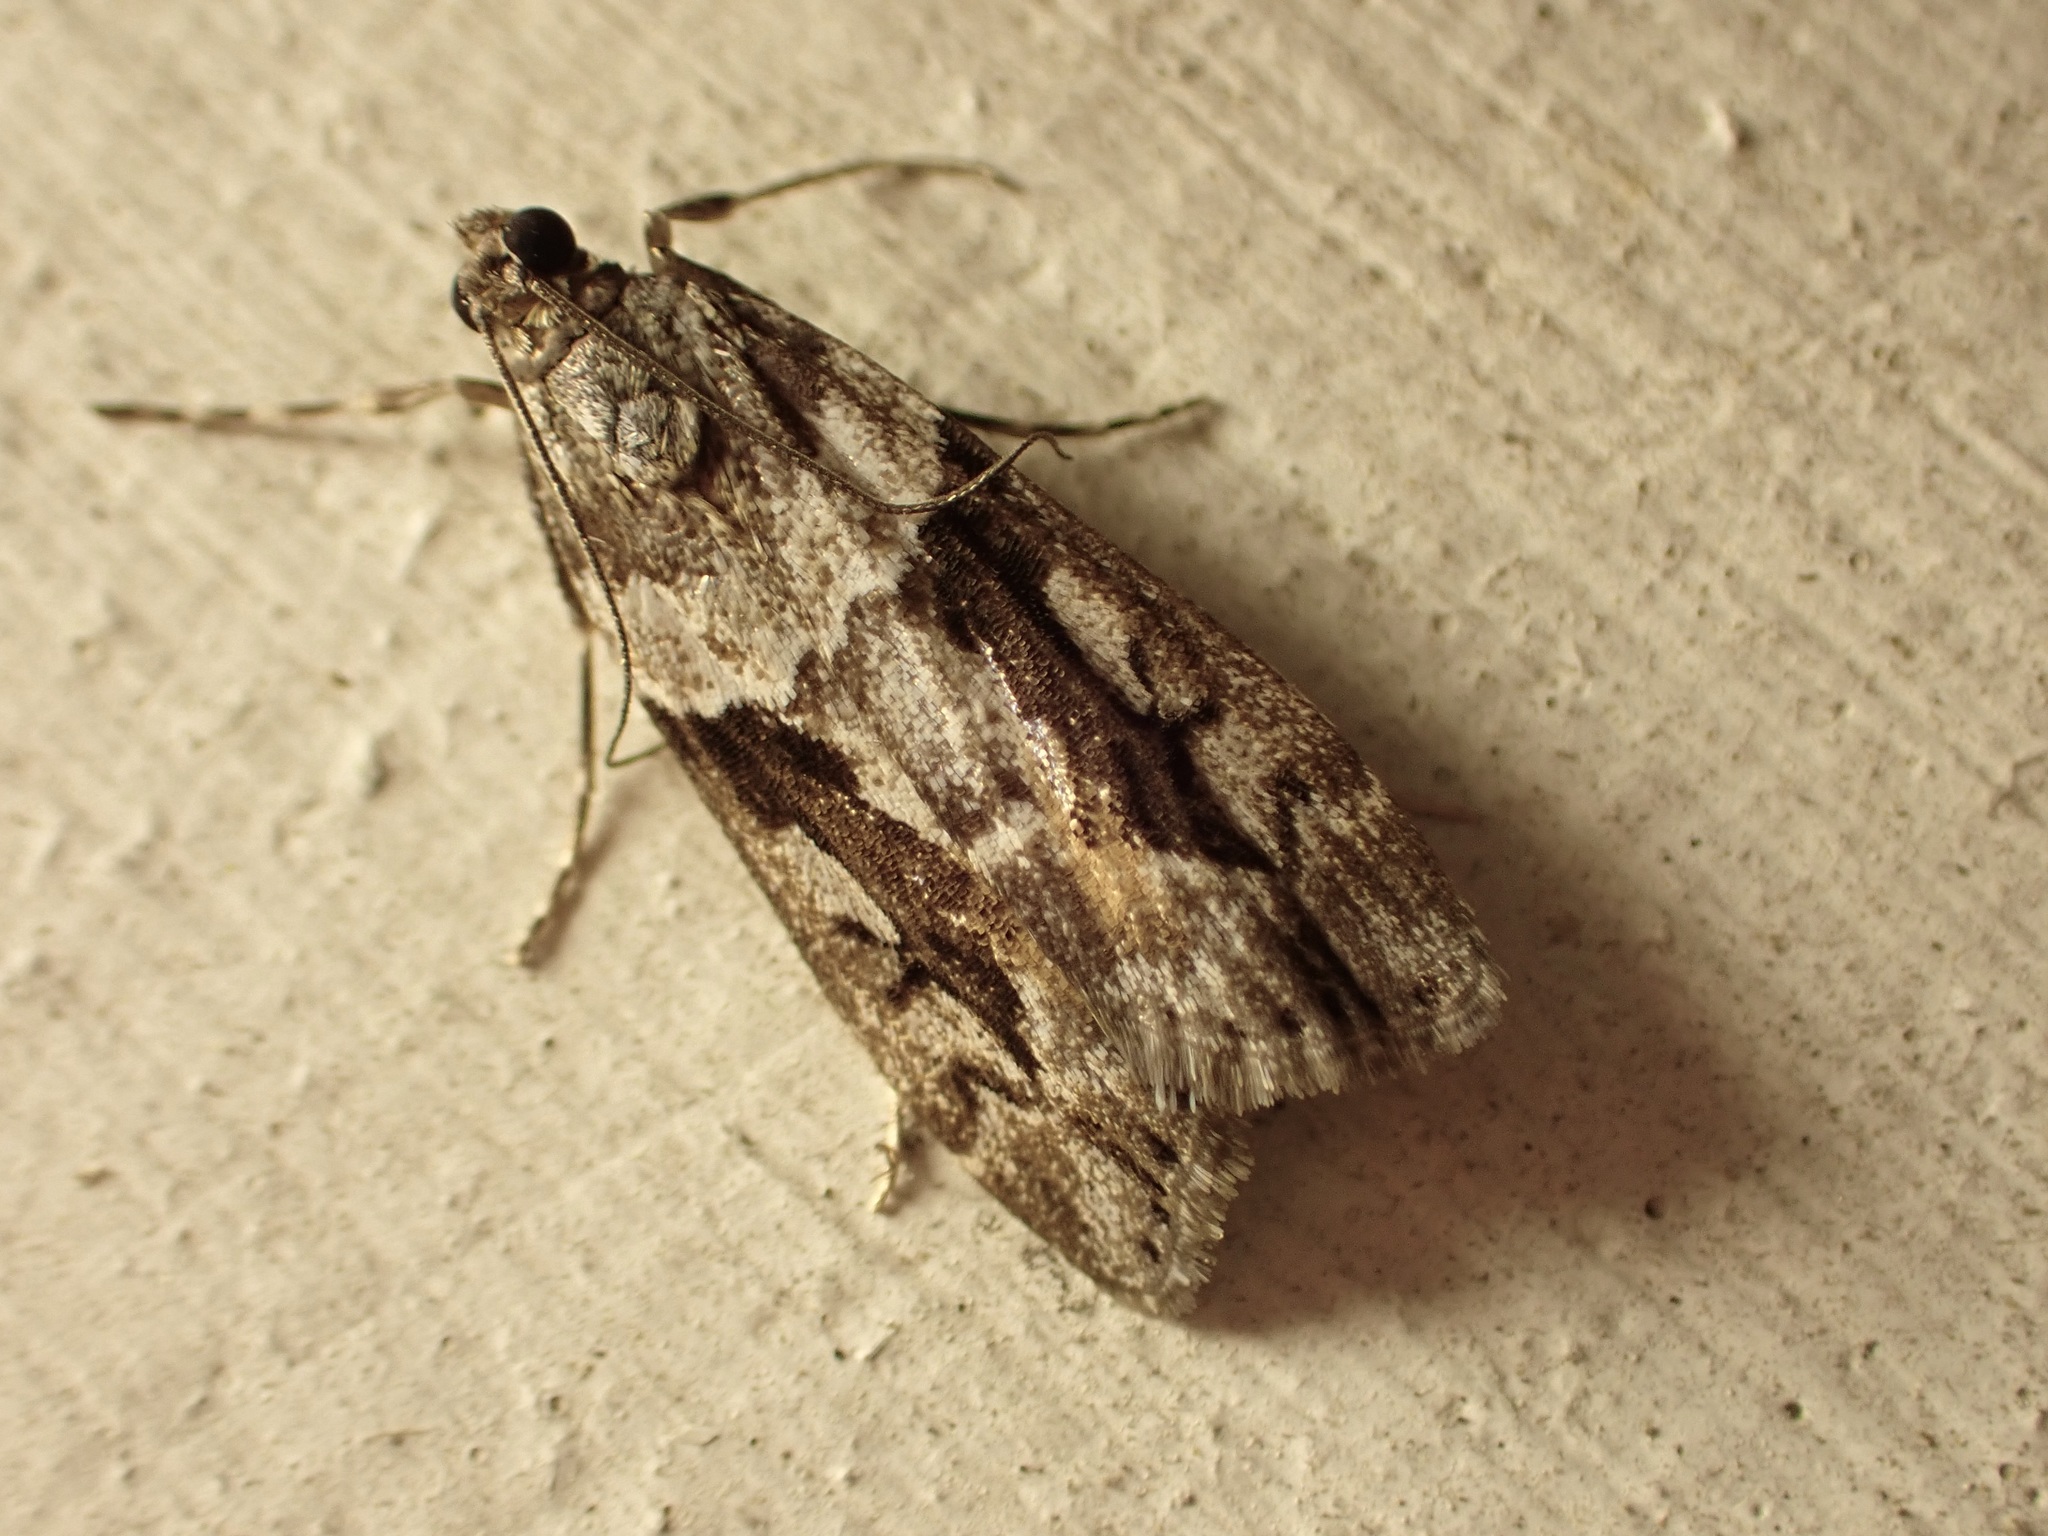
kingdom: Animalia
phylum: Arthropoda
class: Insecta
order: Lepidoptera
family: Crambidae
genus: Eudonia
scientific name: Eudonia submarginalis
